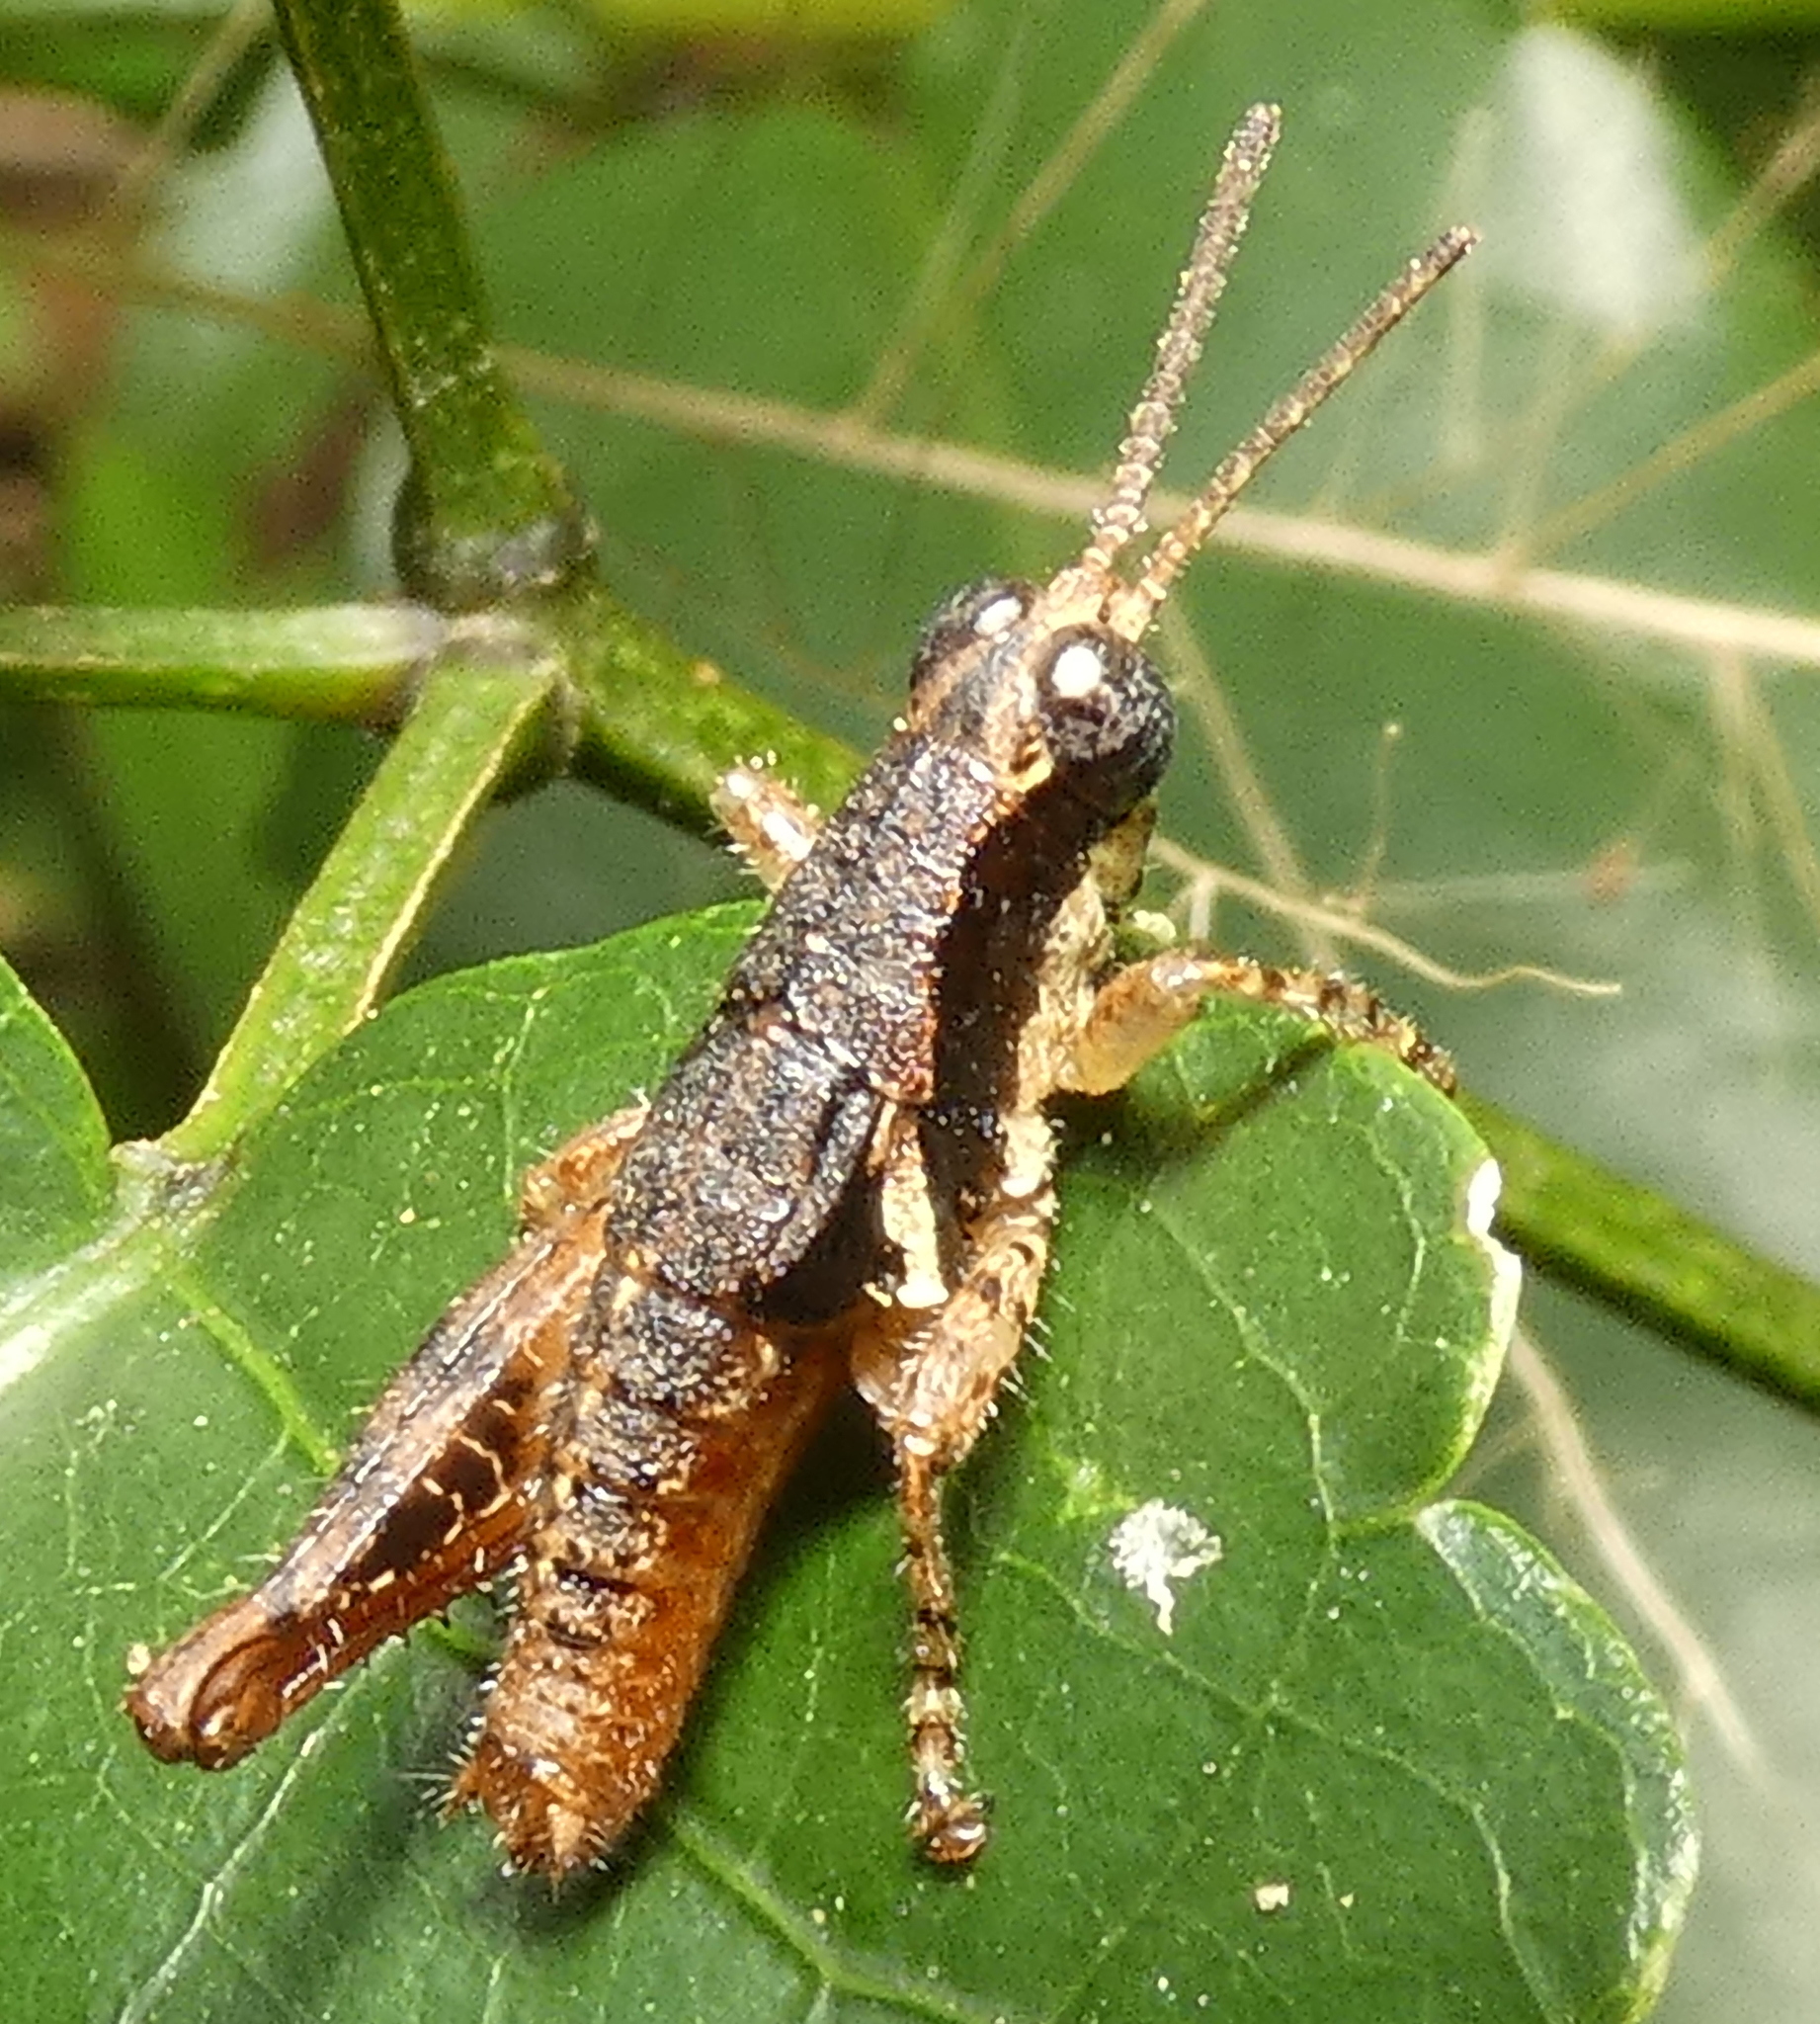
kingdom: Animalia
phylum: Arthropoda
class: Insecta
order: Orthoptera
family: Acrididae
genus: Eujivarus
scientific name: Eujivarus meridionalis
